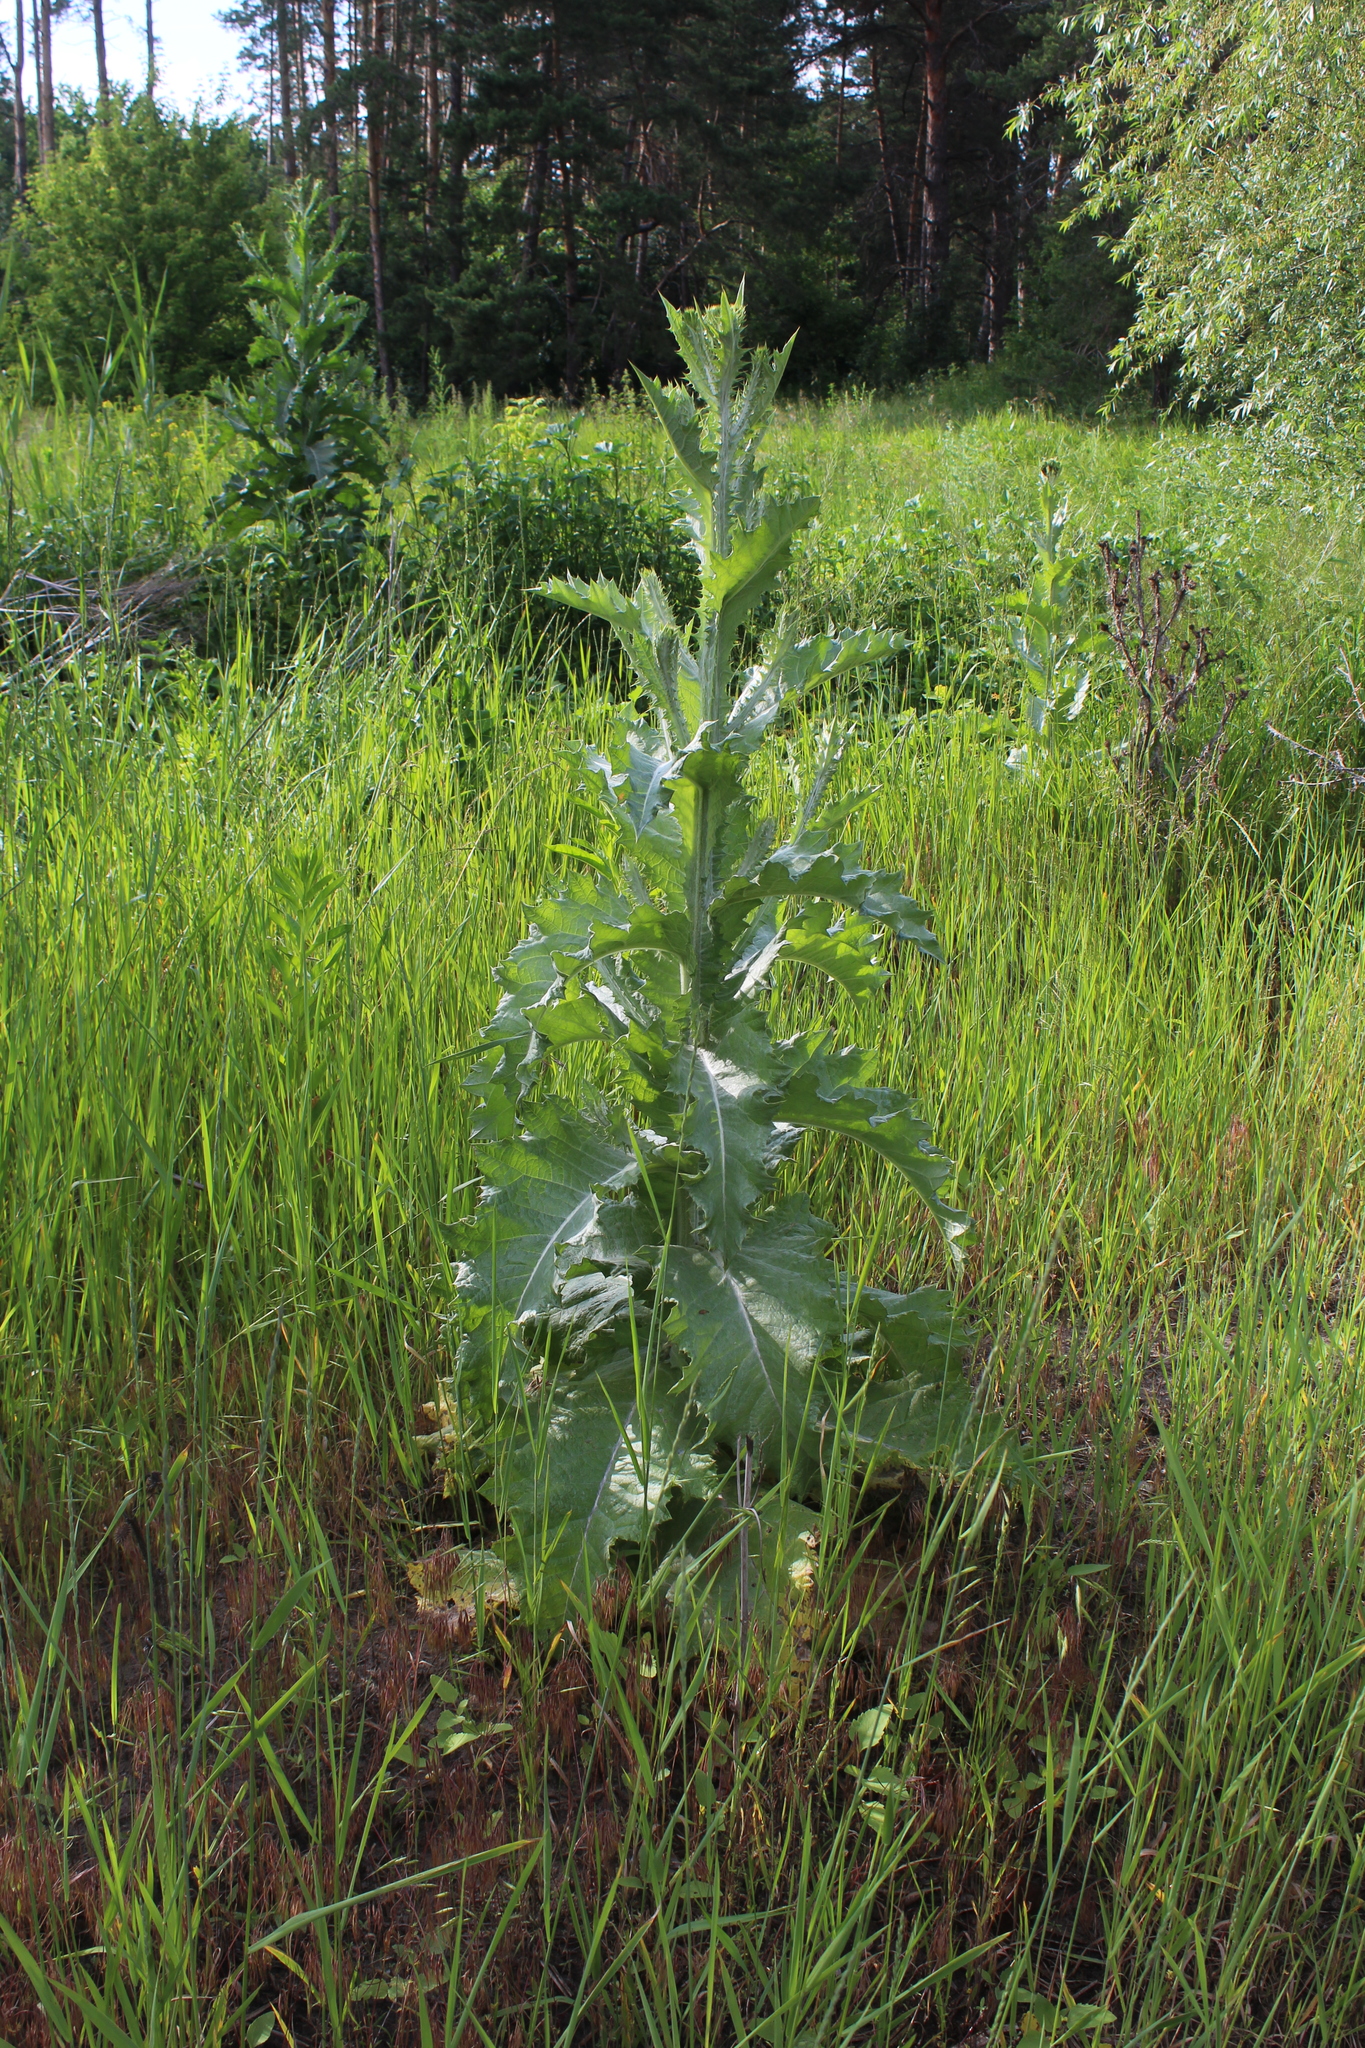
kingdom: Plantae
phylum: Tracheophyta
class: Magnoliopsida
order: Asterales
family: Asteraceae
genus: Onopordum
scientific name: Onopordum acanthium
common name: Scotch thistle
